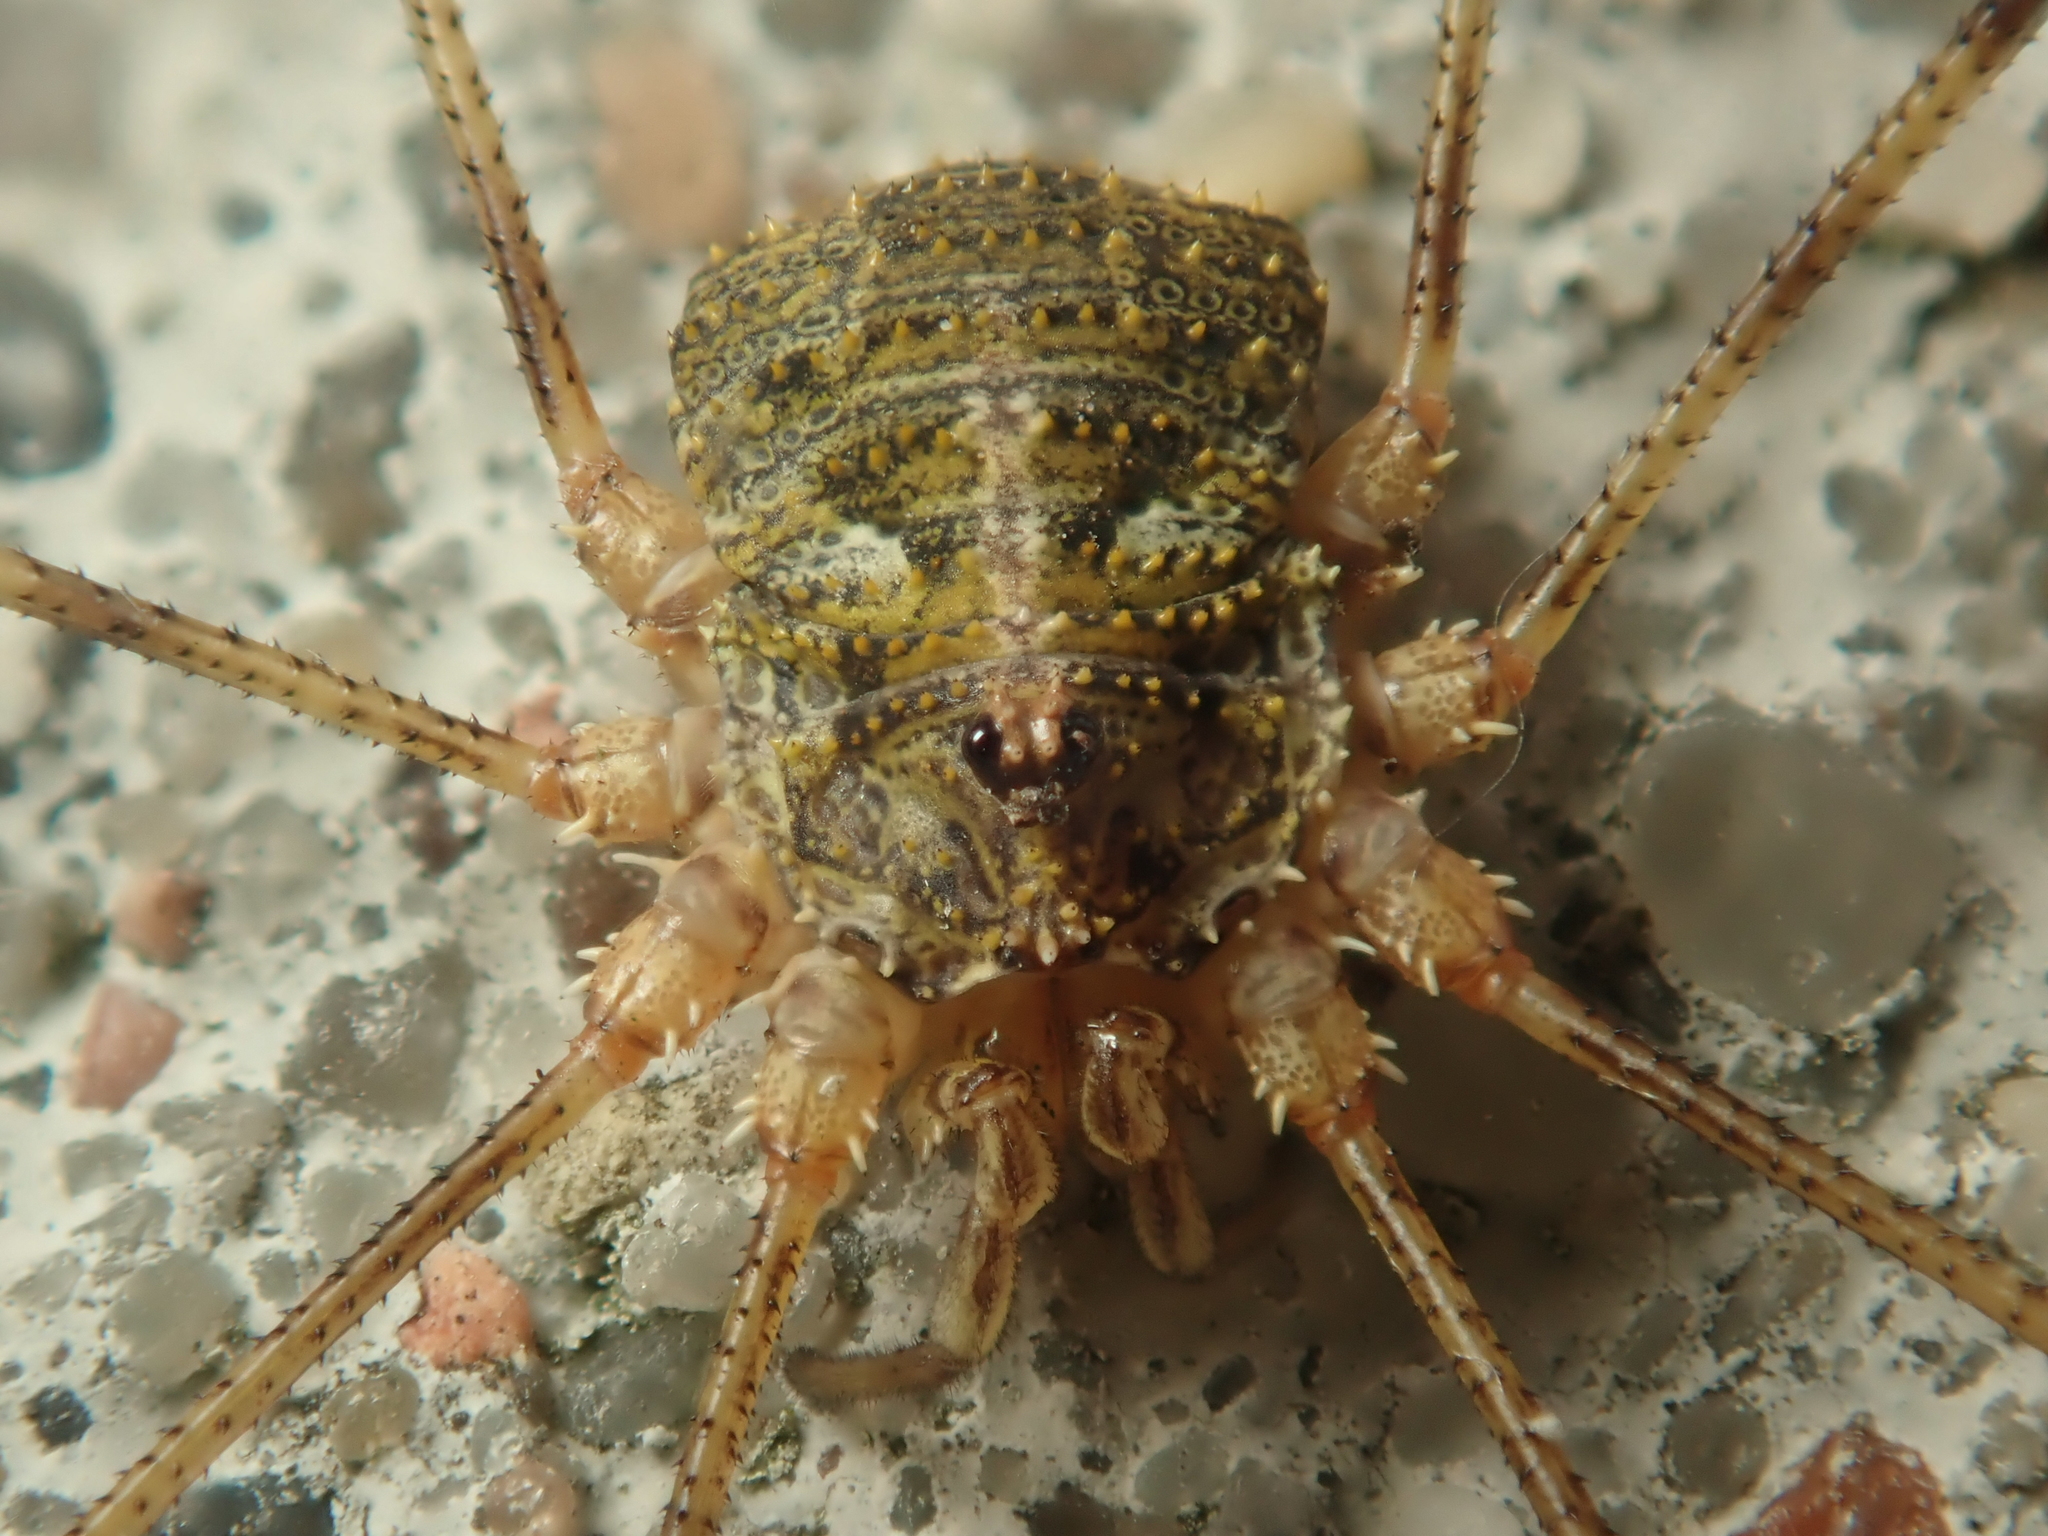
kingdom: Animalia
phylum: Arthropoda
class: Arachnida
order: Opiliones
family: Phalangiidae
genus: Lacinius
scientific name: Lacinius dentiger
